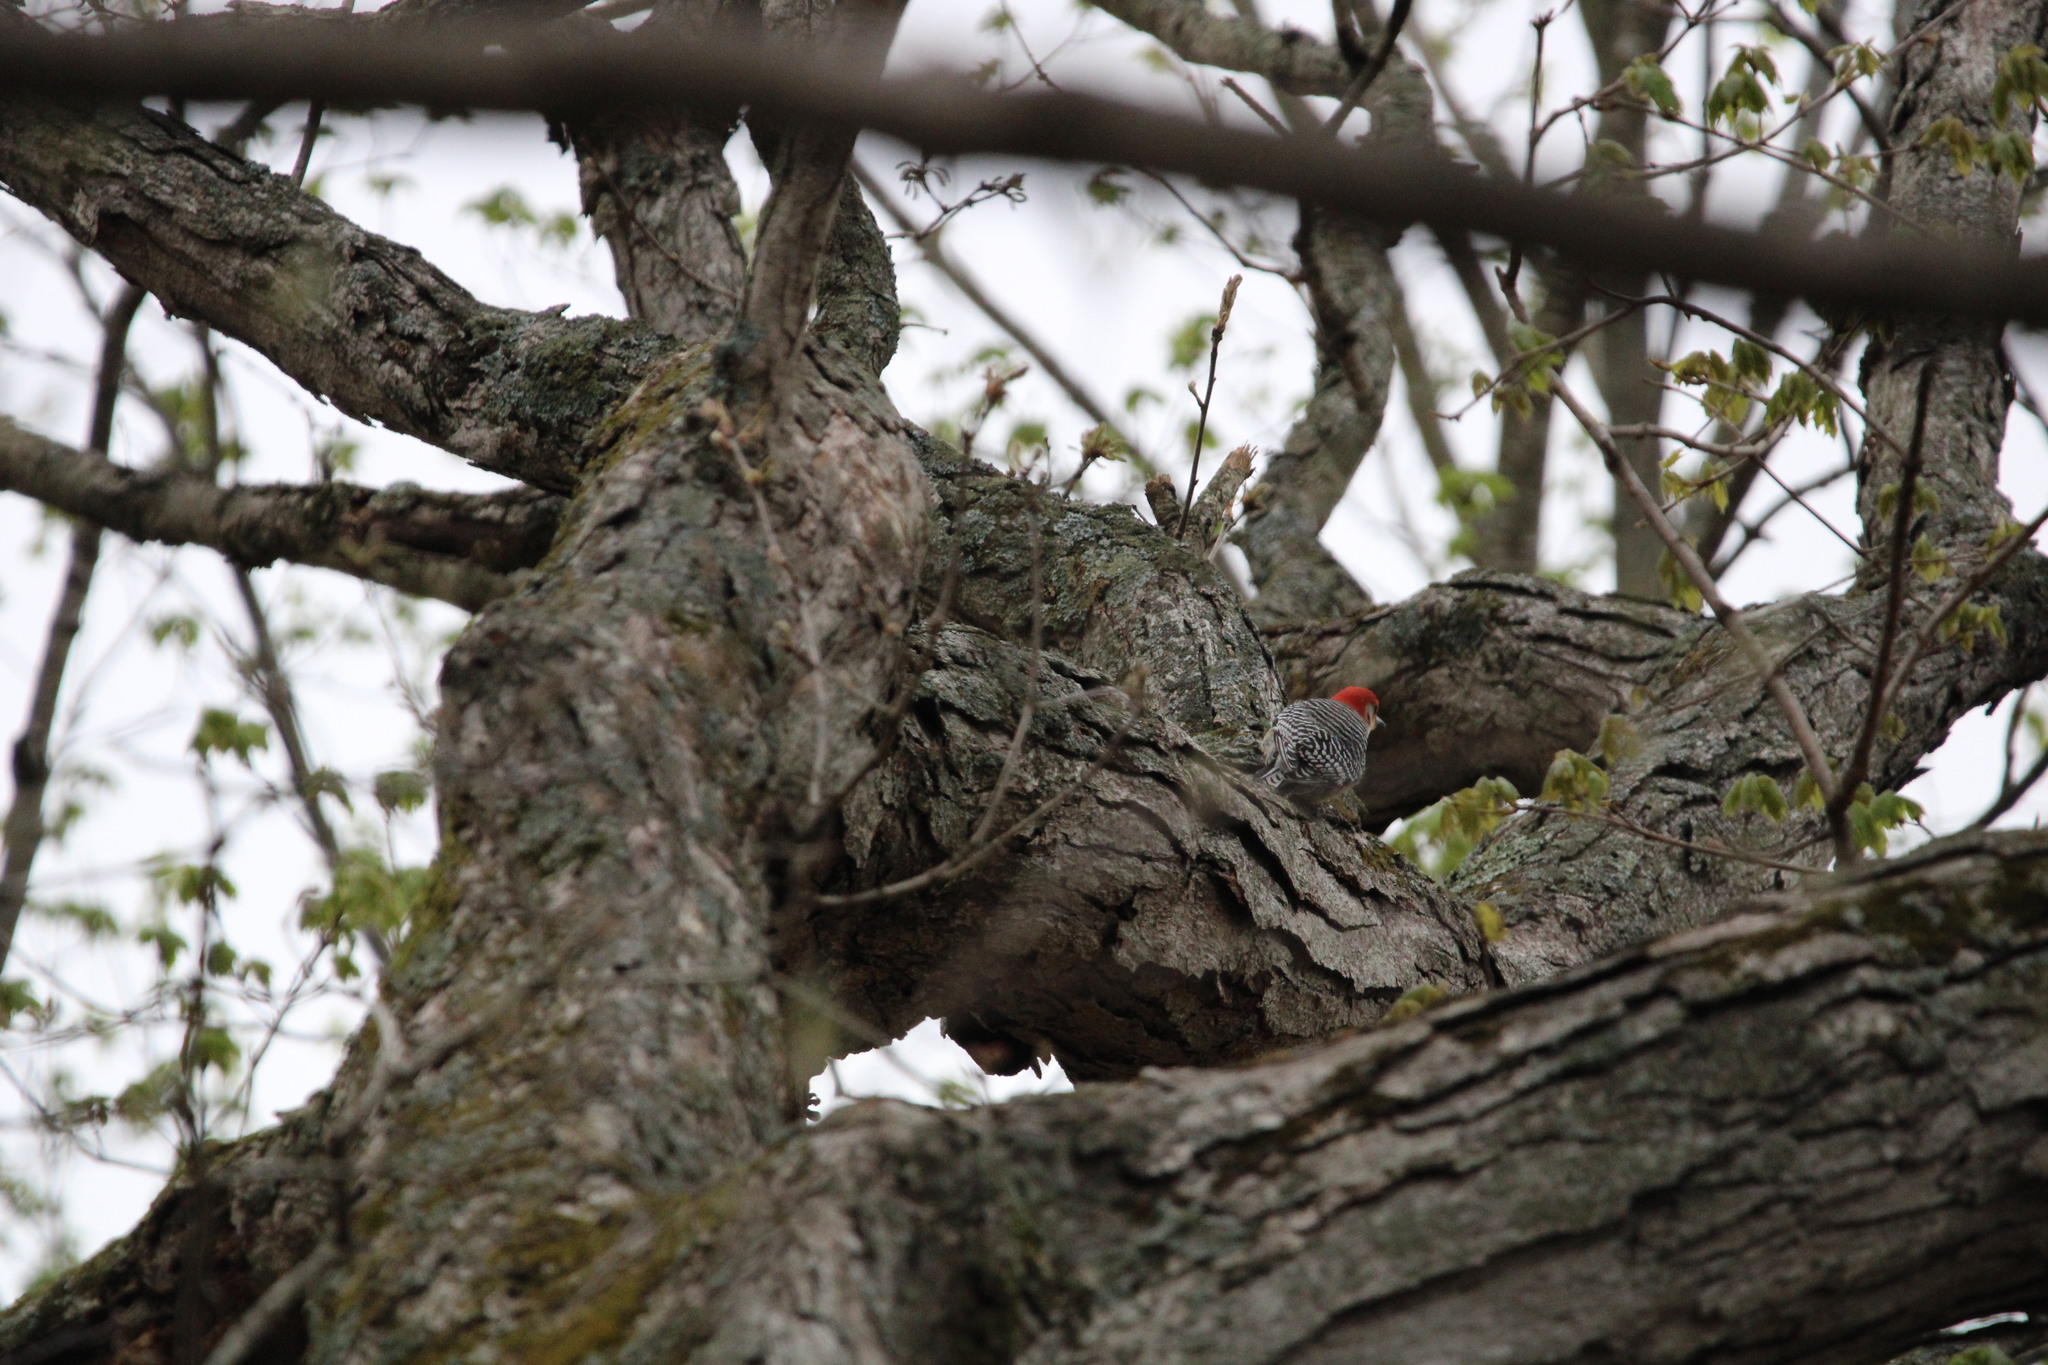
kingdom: Animalia
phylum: Chordata
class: Aves
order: Piciformes
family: Picidae
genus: Melanerpes
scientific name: Melanerpes carolinus
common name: Red-bellied woodpecker
